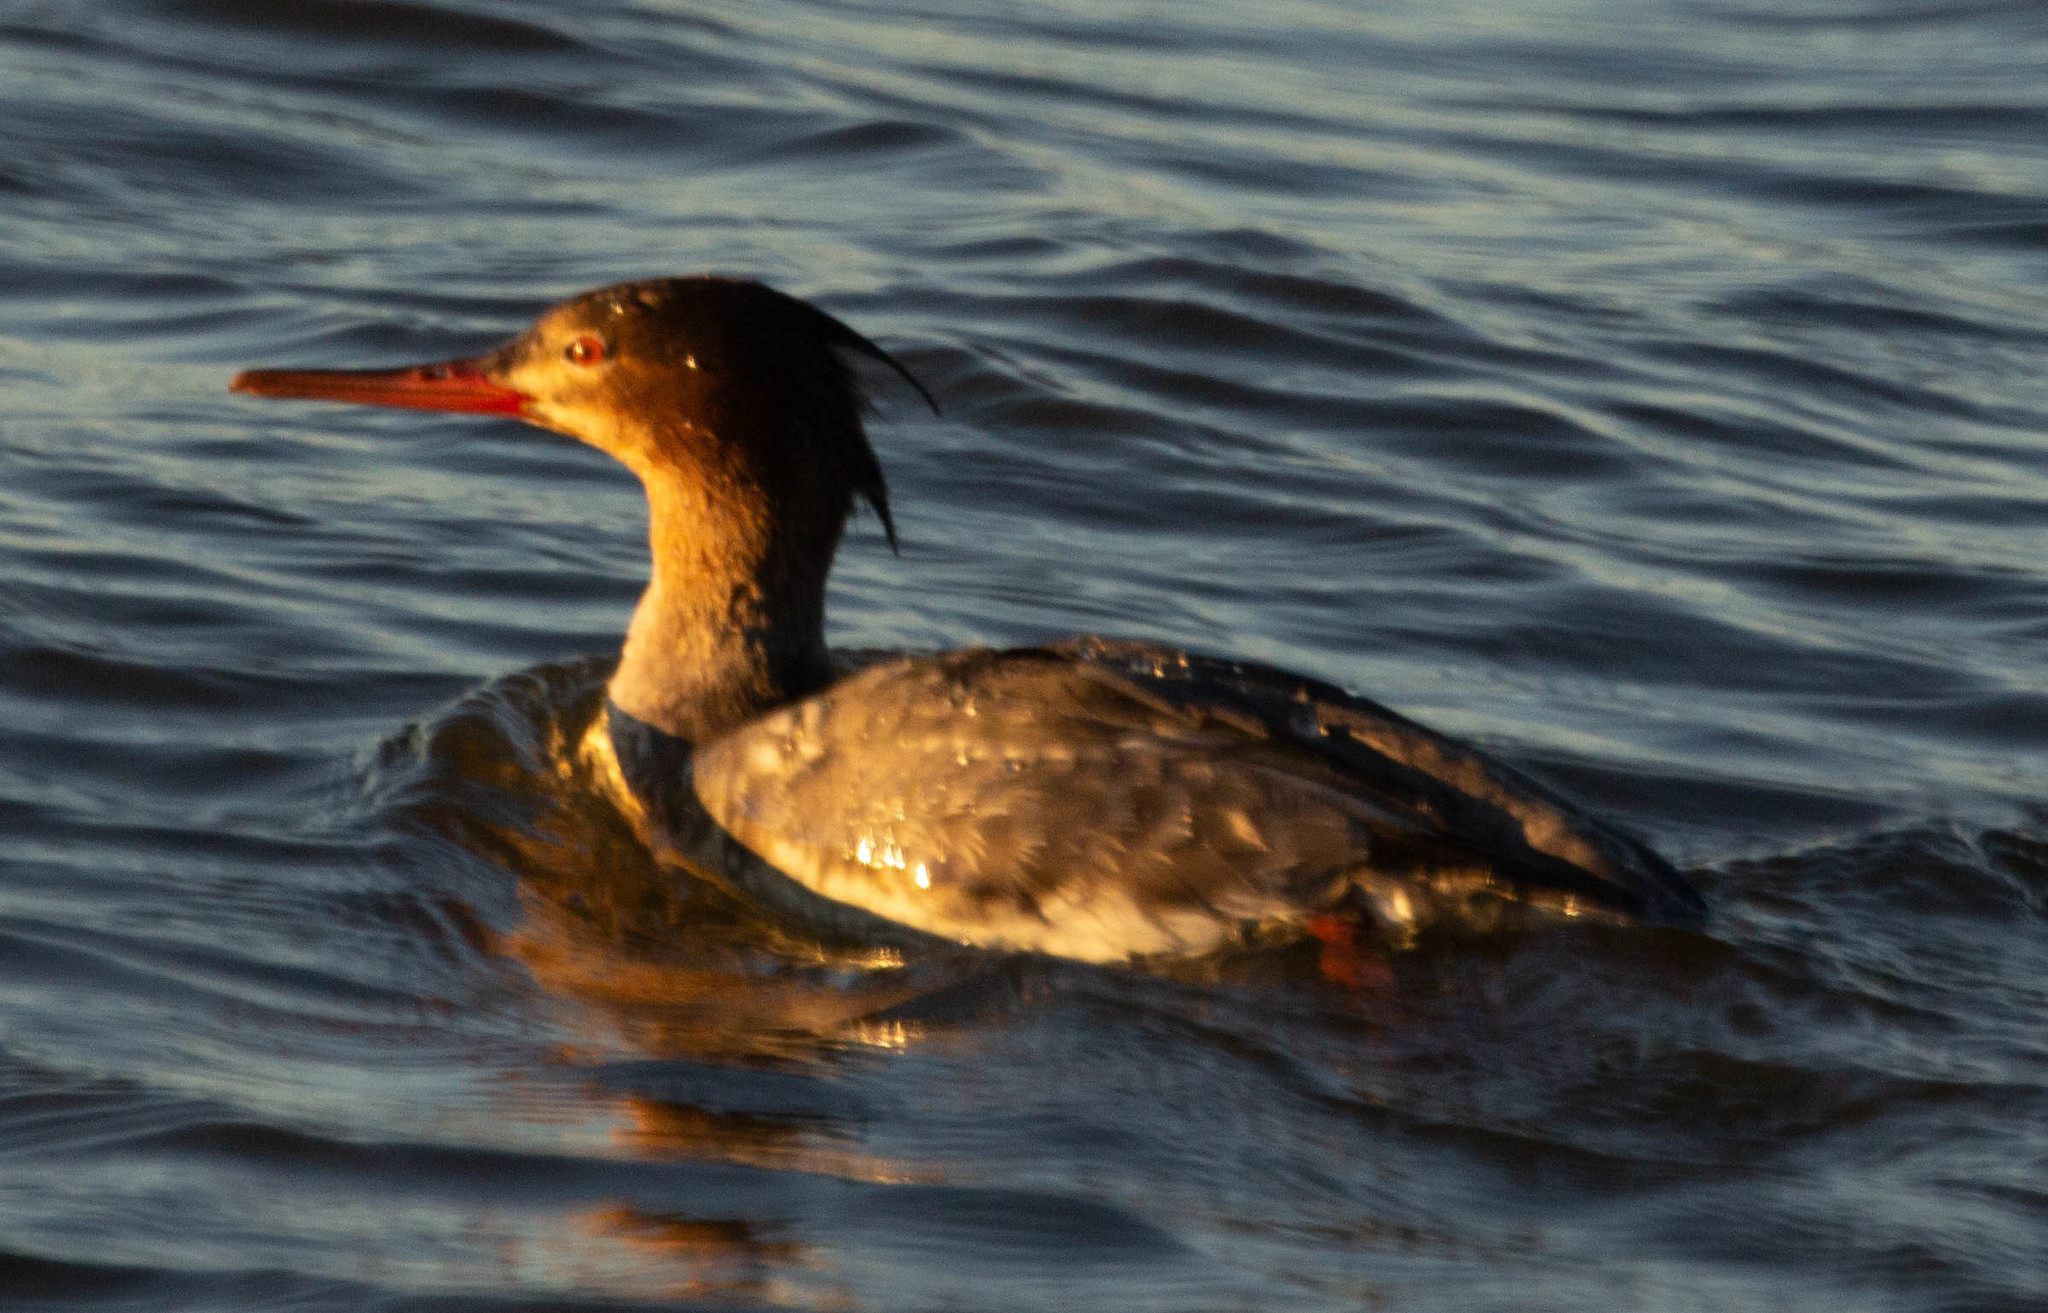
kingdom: Animalia
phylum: Chordata
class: Aves
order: Anseriformes
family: Anatidae
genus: Mergus
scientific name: Mergus serrator
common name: Red-breasted merganser
